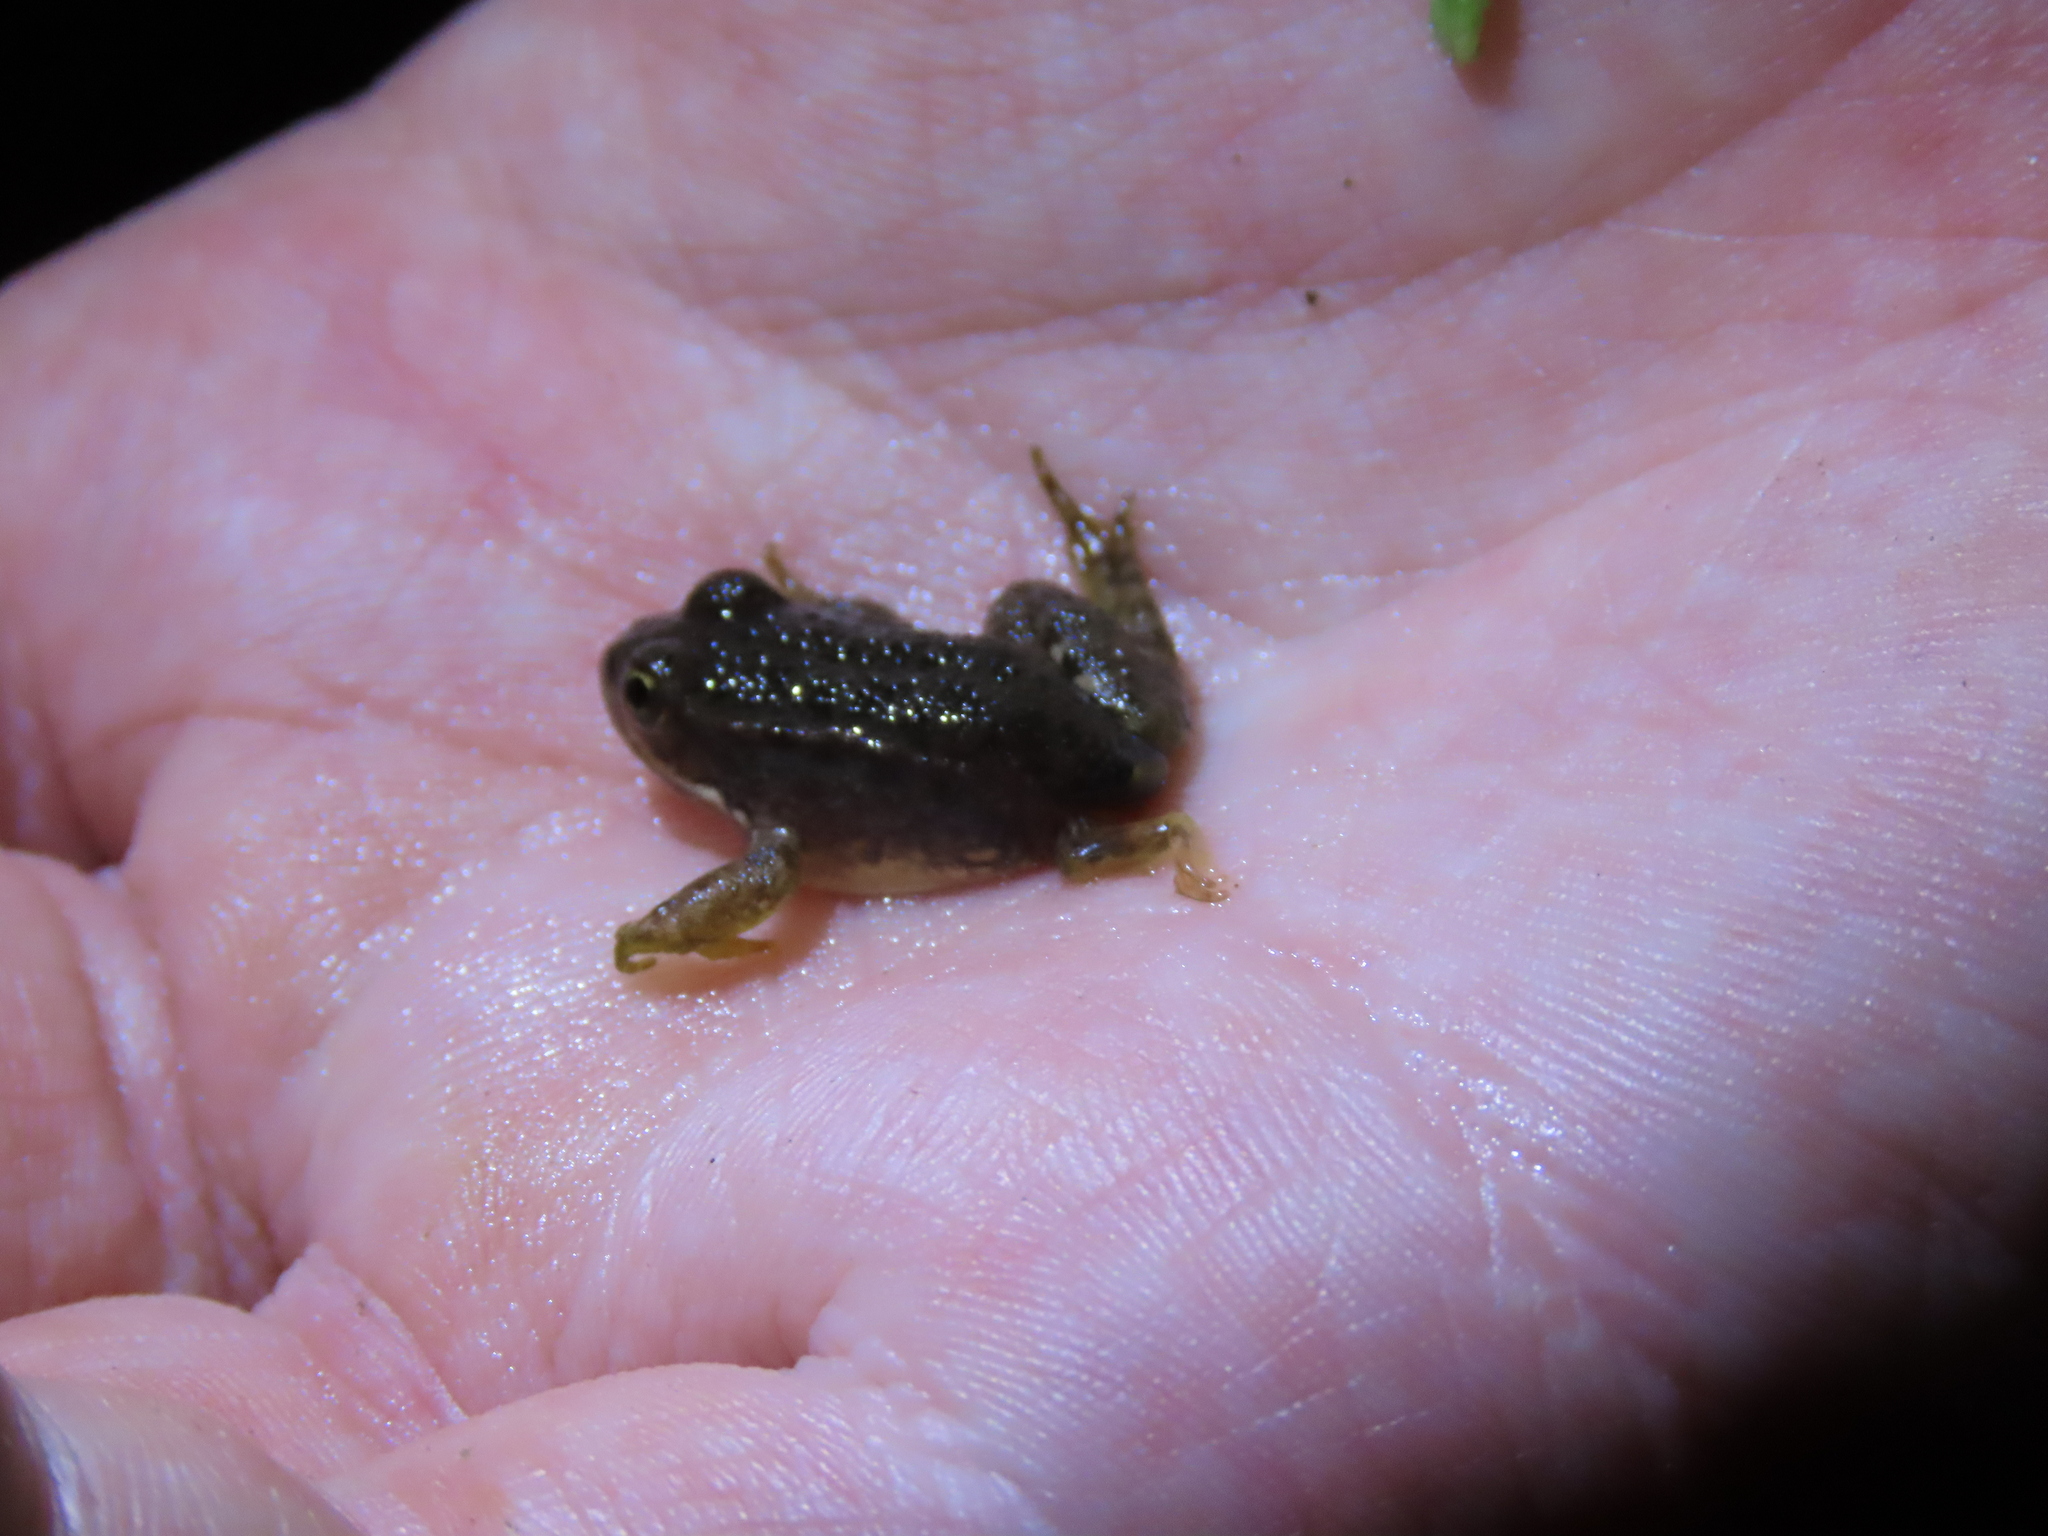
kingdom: Animalia
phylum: Chordata
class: Amphibia
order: Anura
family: Ranidae
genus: Pelophylax
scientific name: Pelophylax perezi
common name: Perez's frog
